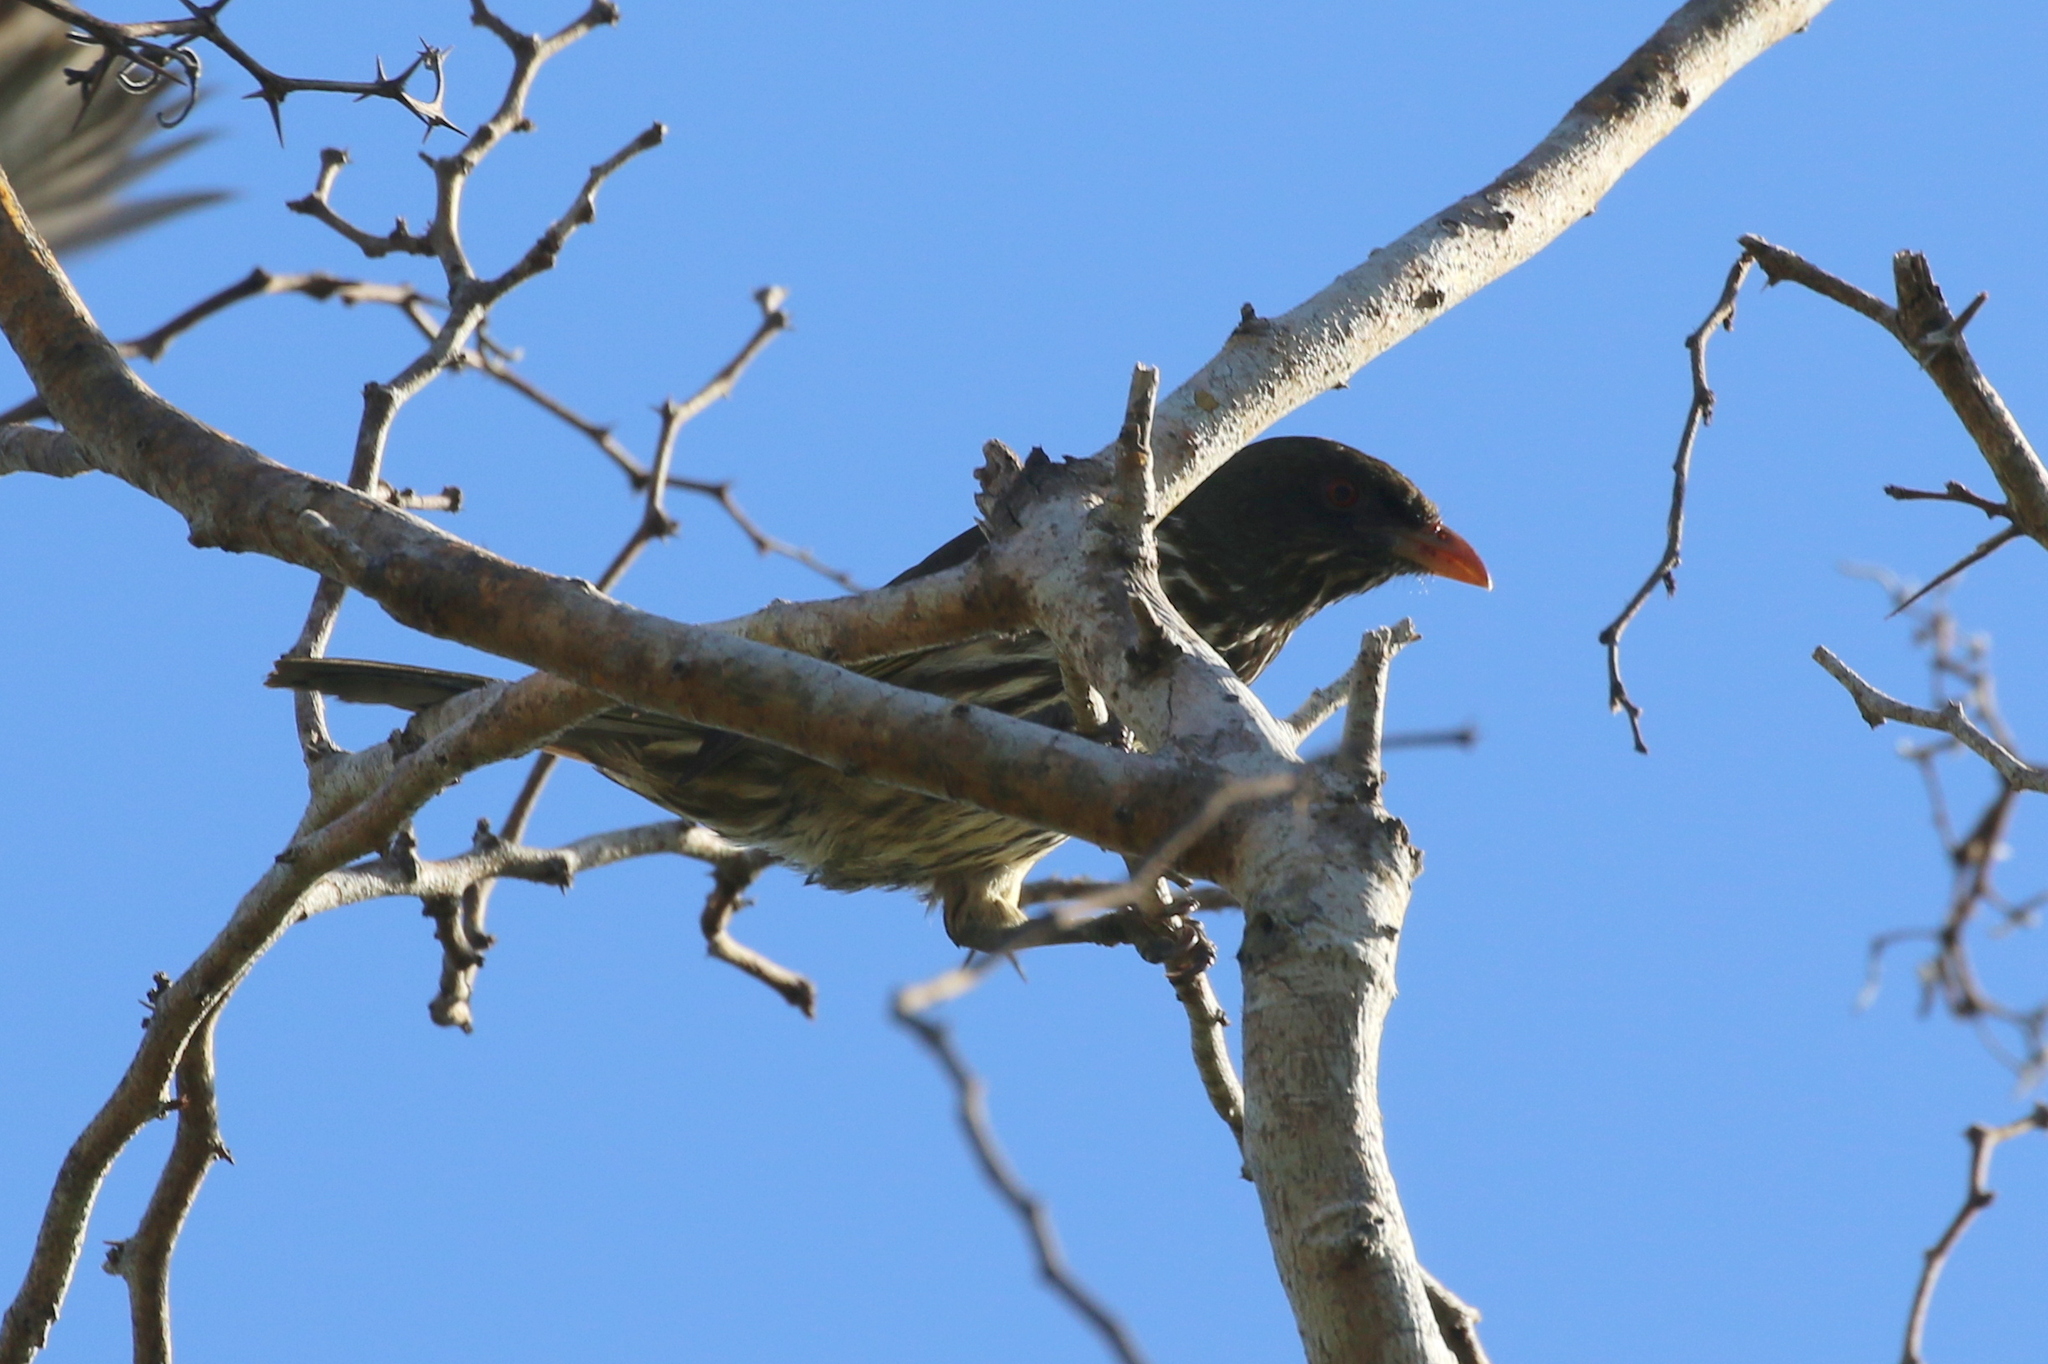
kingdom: Animalia
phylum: Chordata
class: Aves
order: Passeriformes
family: Dulidae
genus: Dulus
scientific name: Dulus dominicus
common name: Palmchat
